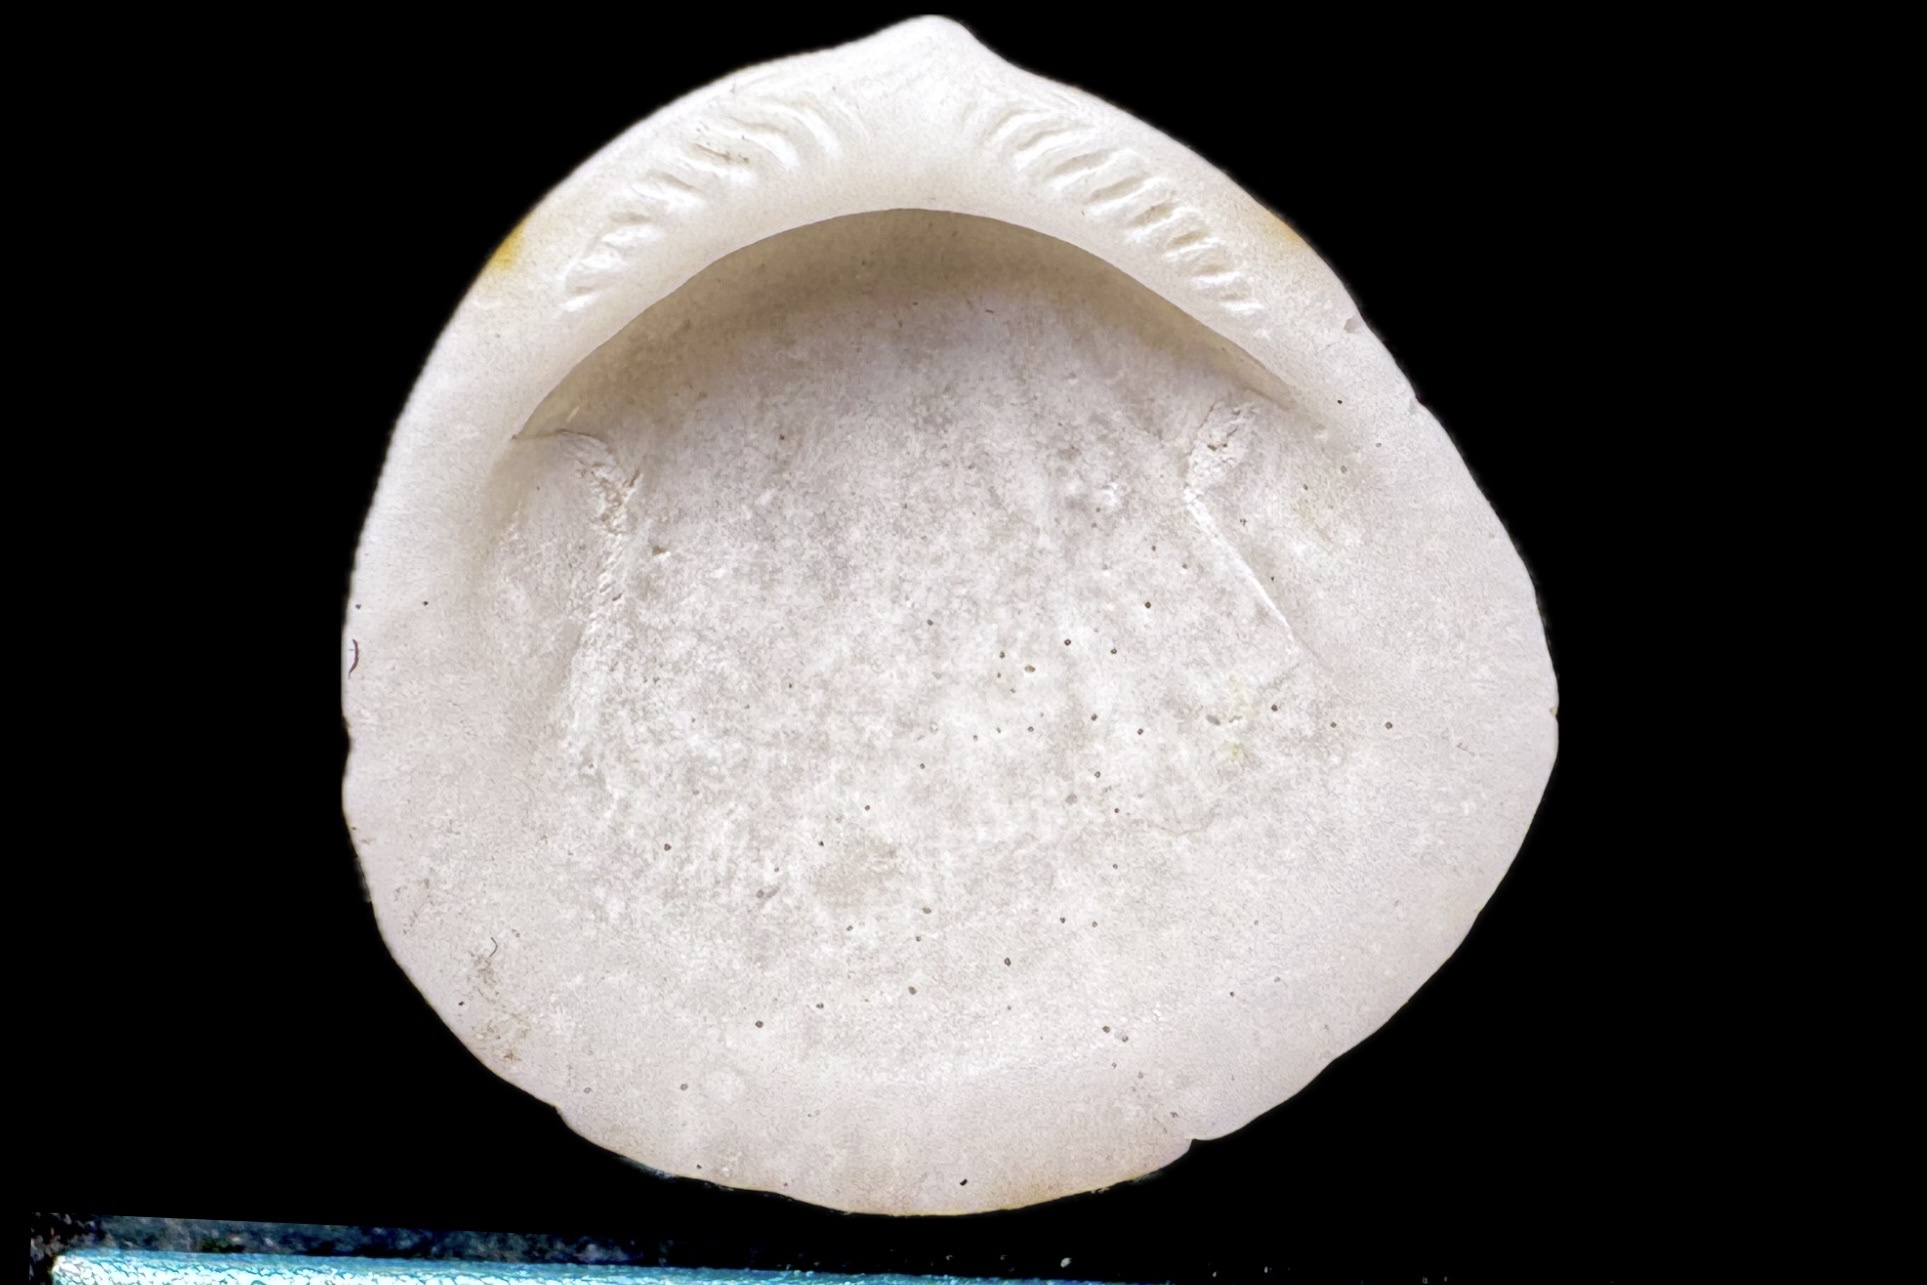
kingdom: Animalia
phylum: Mollusca
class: Bivalvia
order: Arcida
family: Glycymerididae
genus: Tucetona
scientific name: Tucetona pectinata
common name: Comb bittersweet
